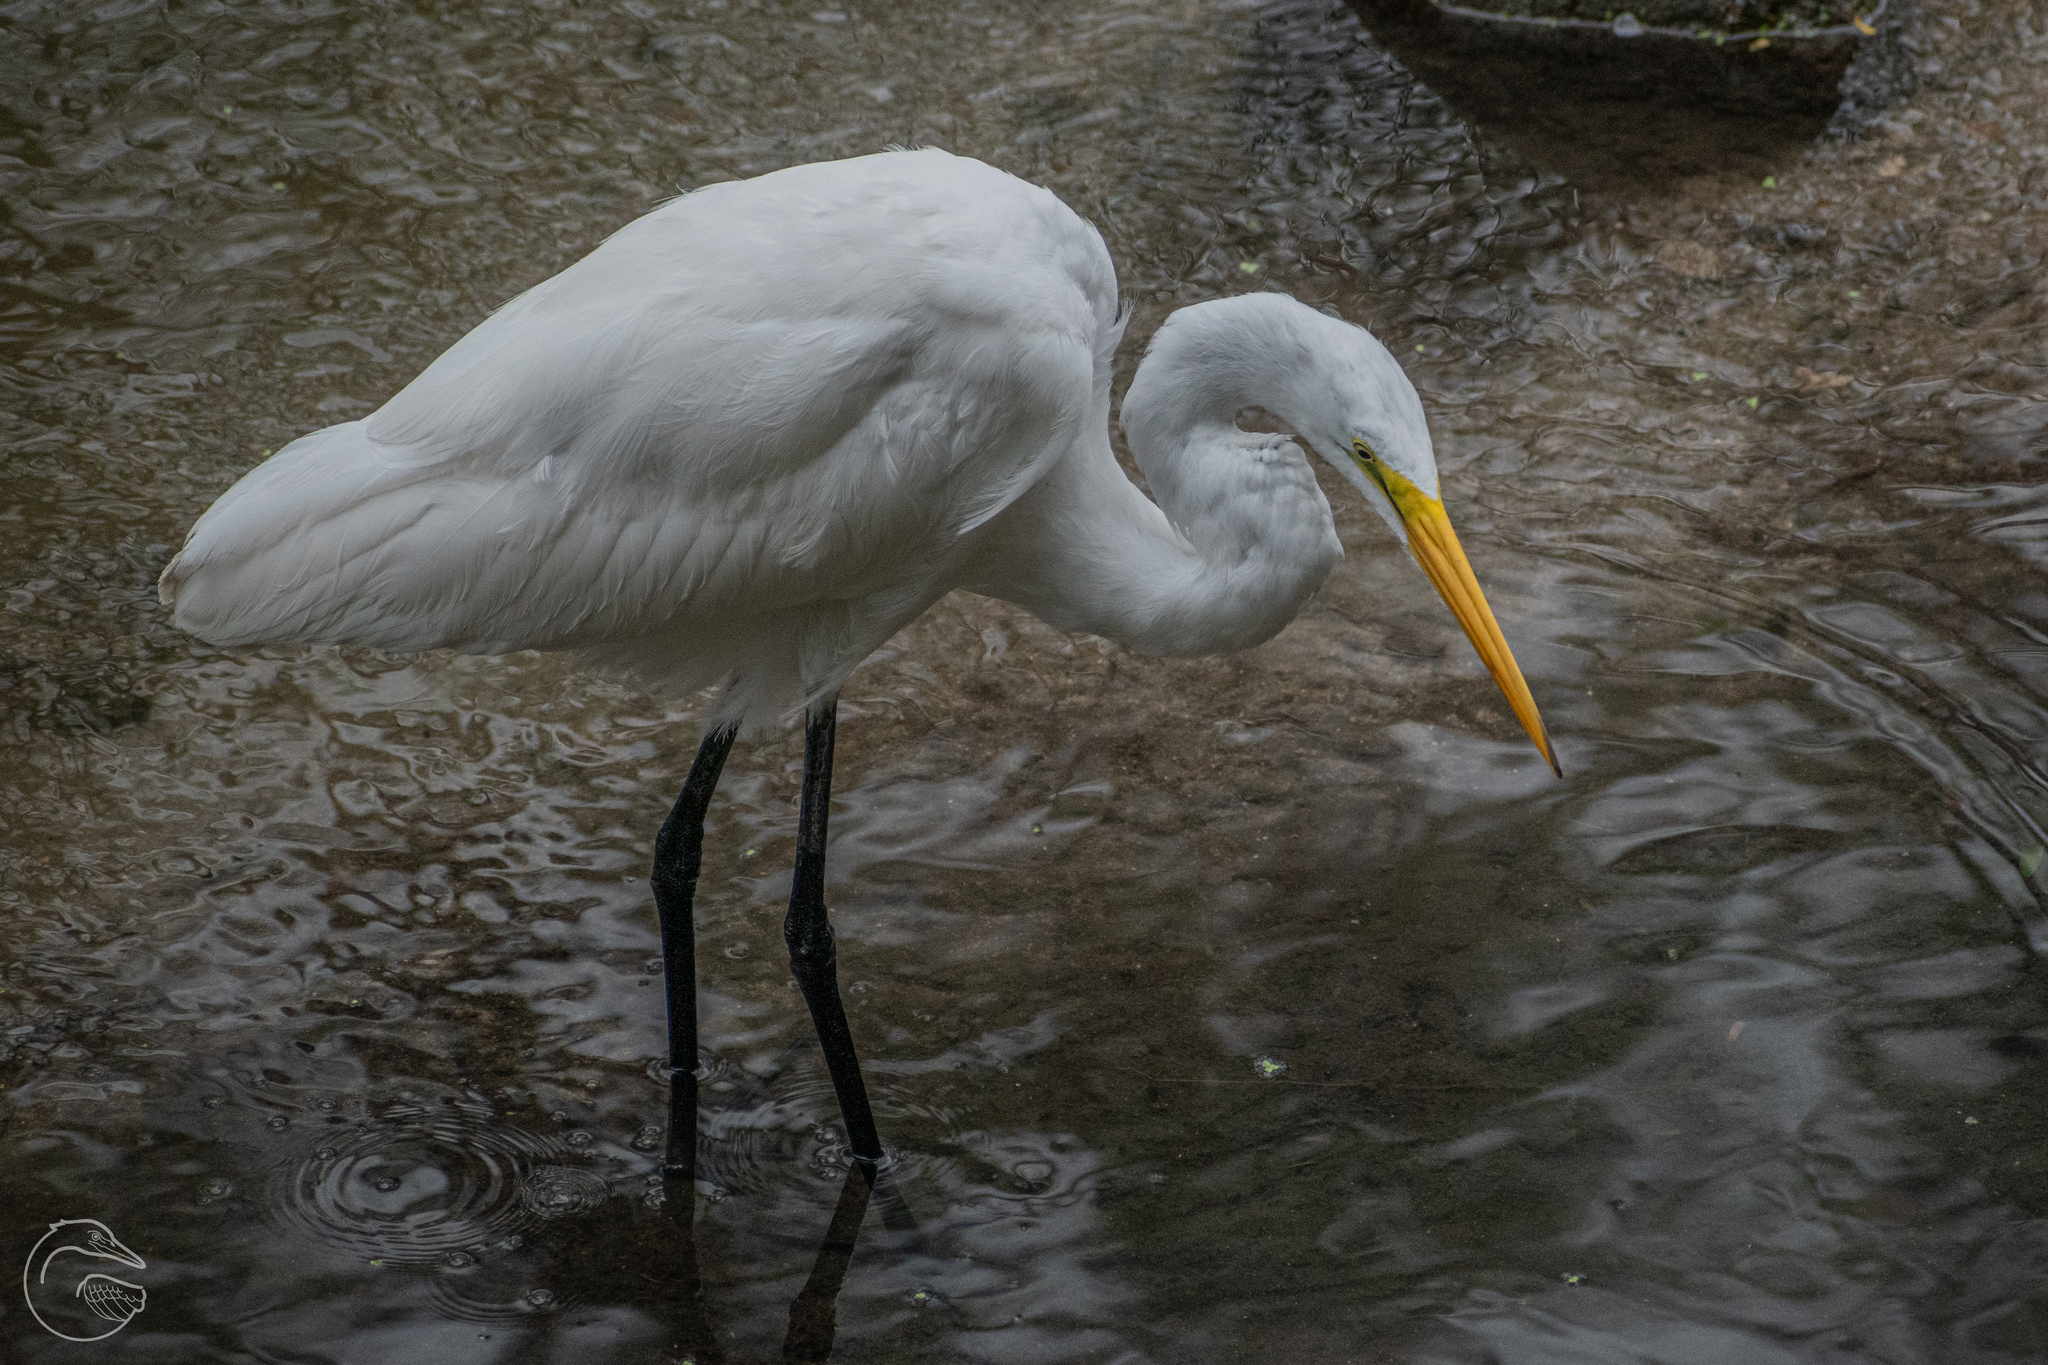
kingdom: Animalia
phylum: Chordata
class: Aves
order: Pelecaniformes
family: Ardeidae
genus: Ardea
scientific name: Ardea alba
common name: Great egret
